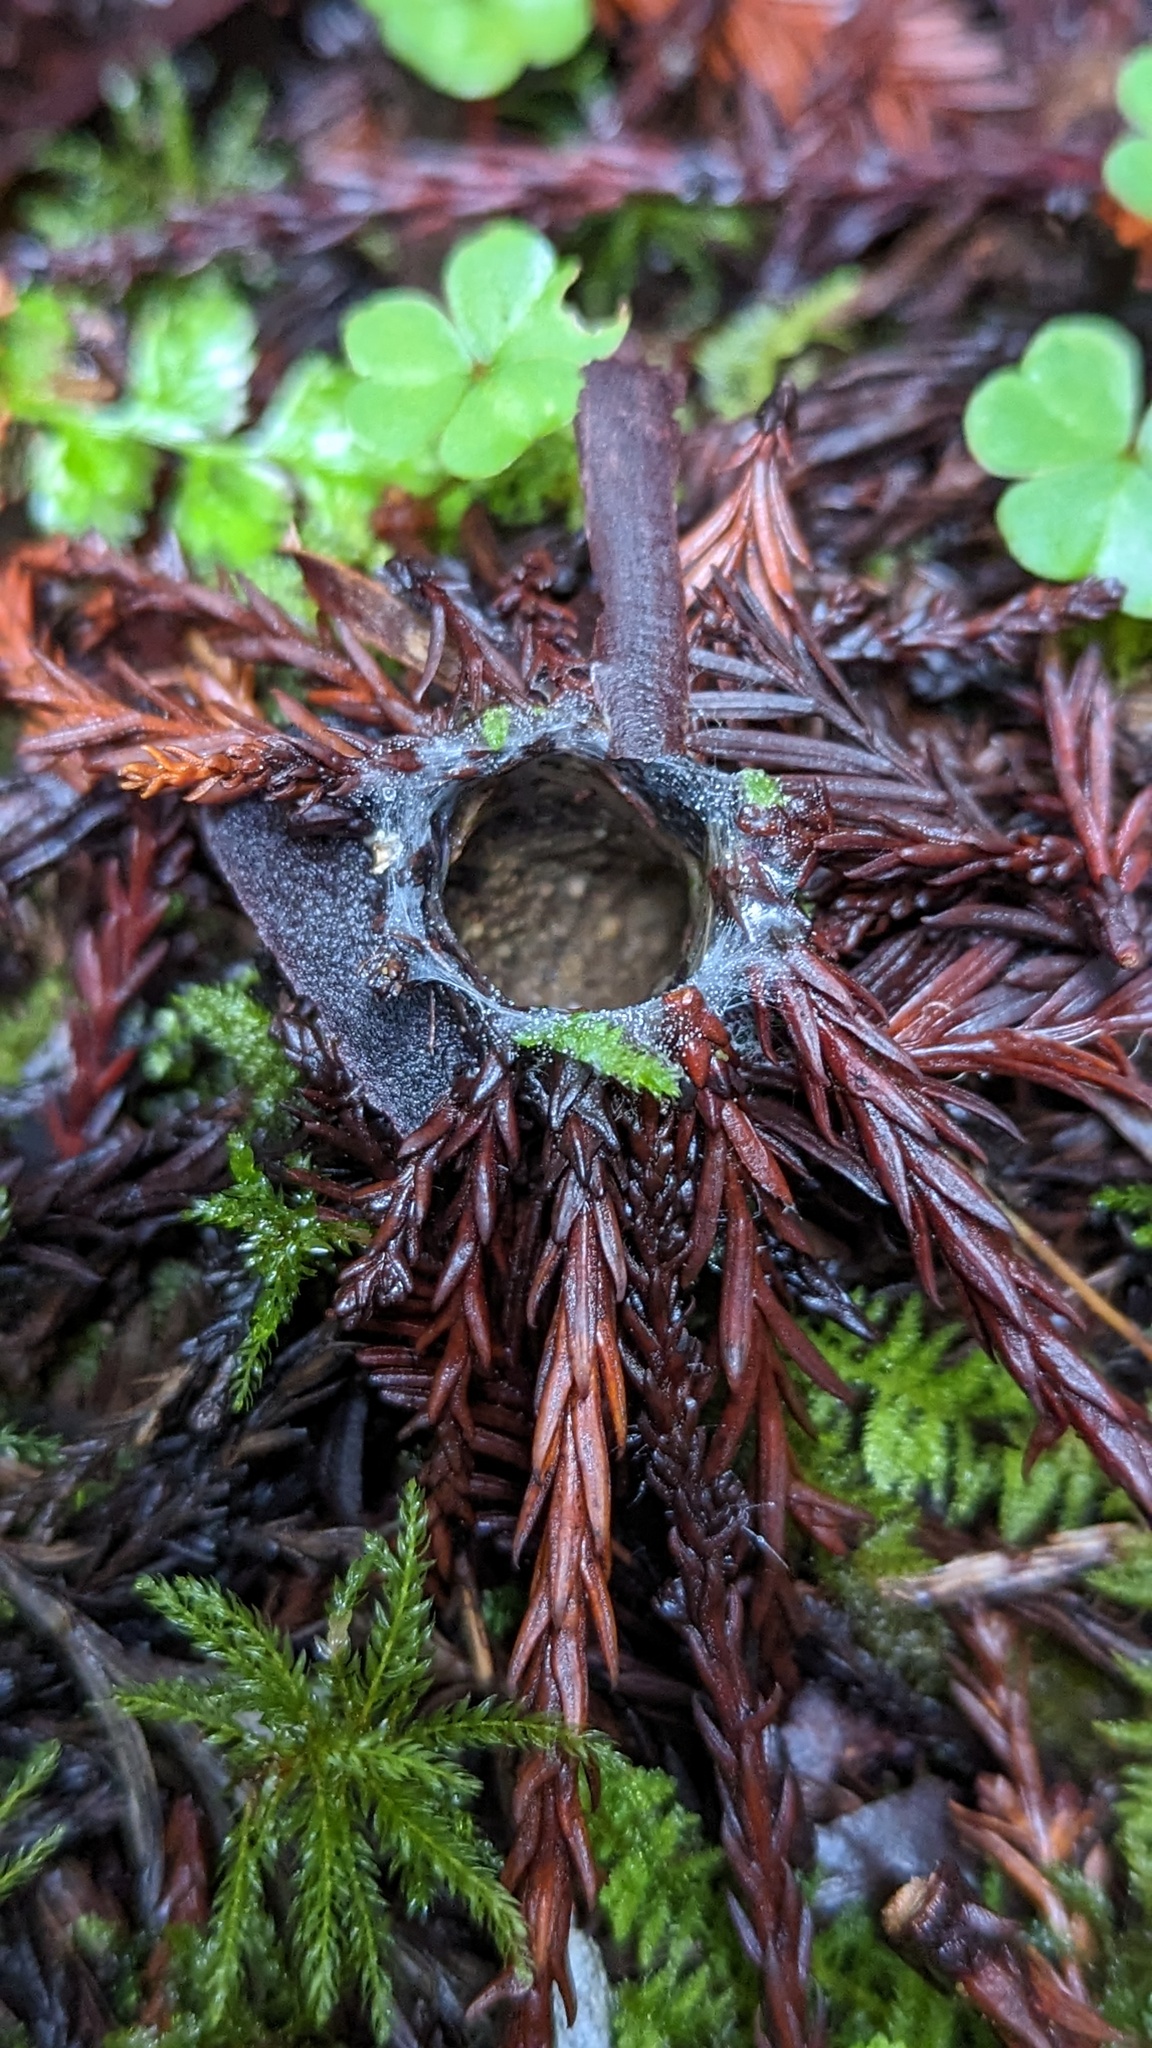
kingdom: Animalia
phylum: Arthropoda
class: Arachnida
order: Araneae
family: Antrodiaetidae
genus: Atypoides
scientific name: Atypoides riversi
